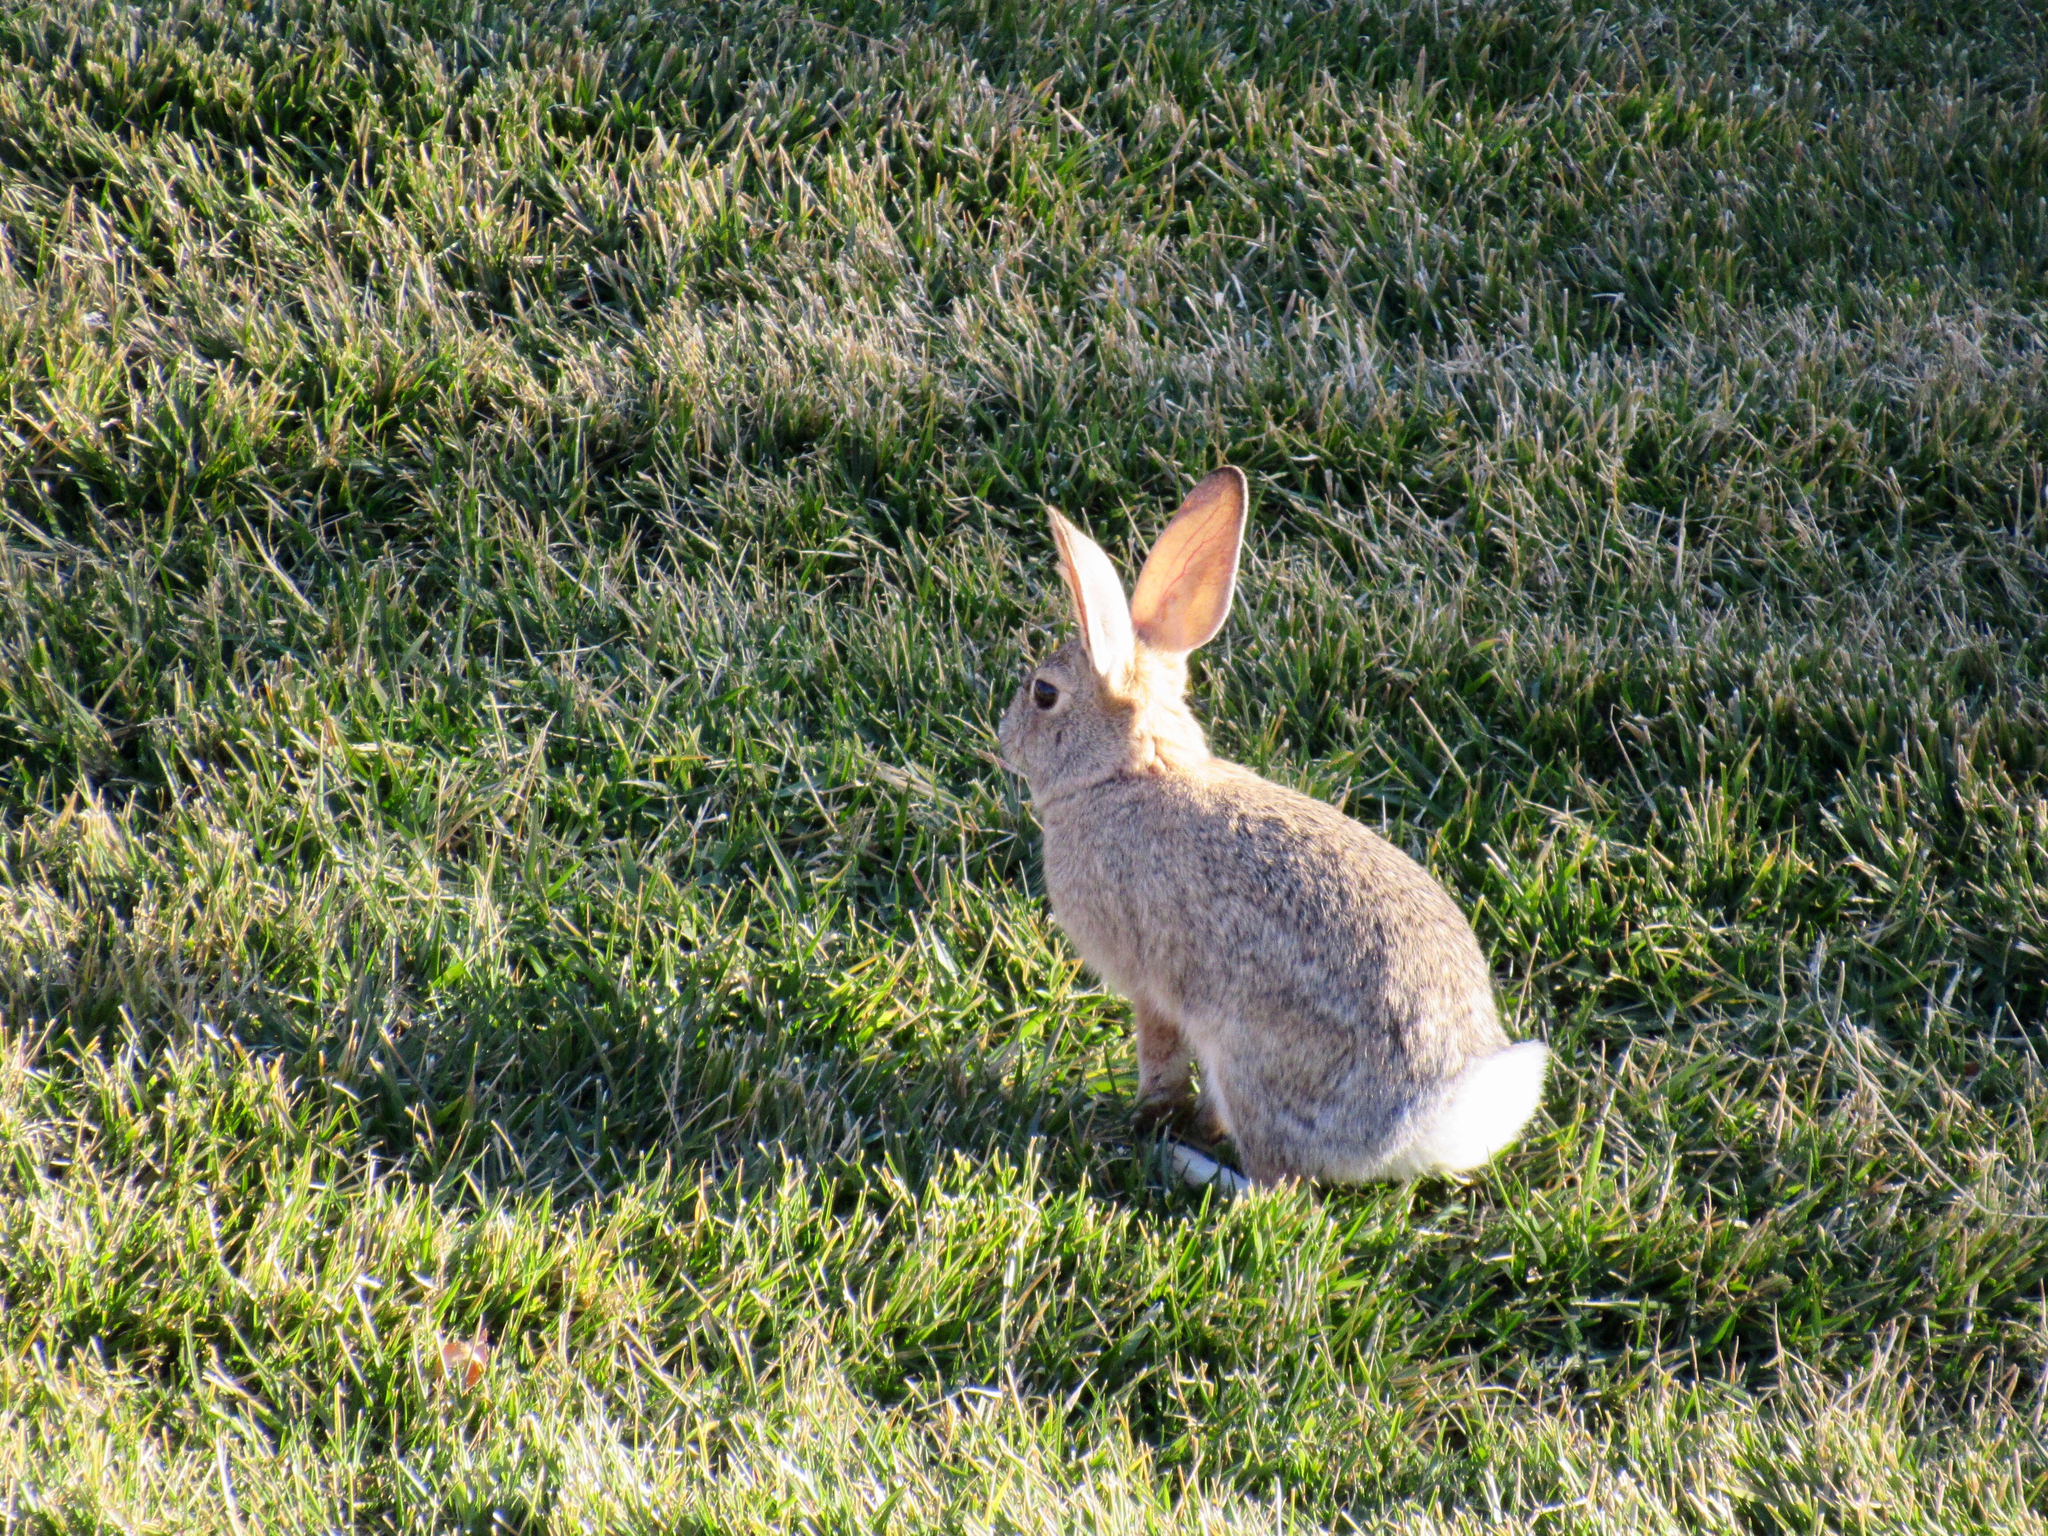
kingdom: Animalia
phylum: Chordata
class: Mammalia
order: Lagomorpha
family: Leporidae
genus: Sylvilagus
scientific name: Sylvilagus audubonii
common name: Desert cottontail
